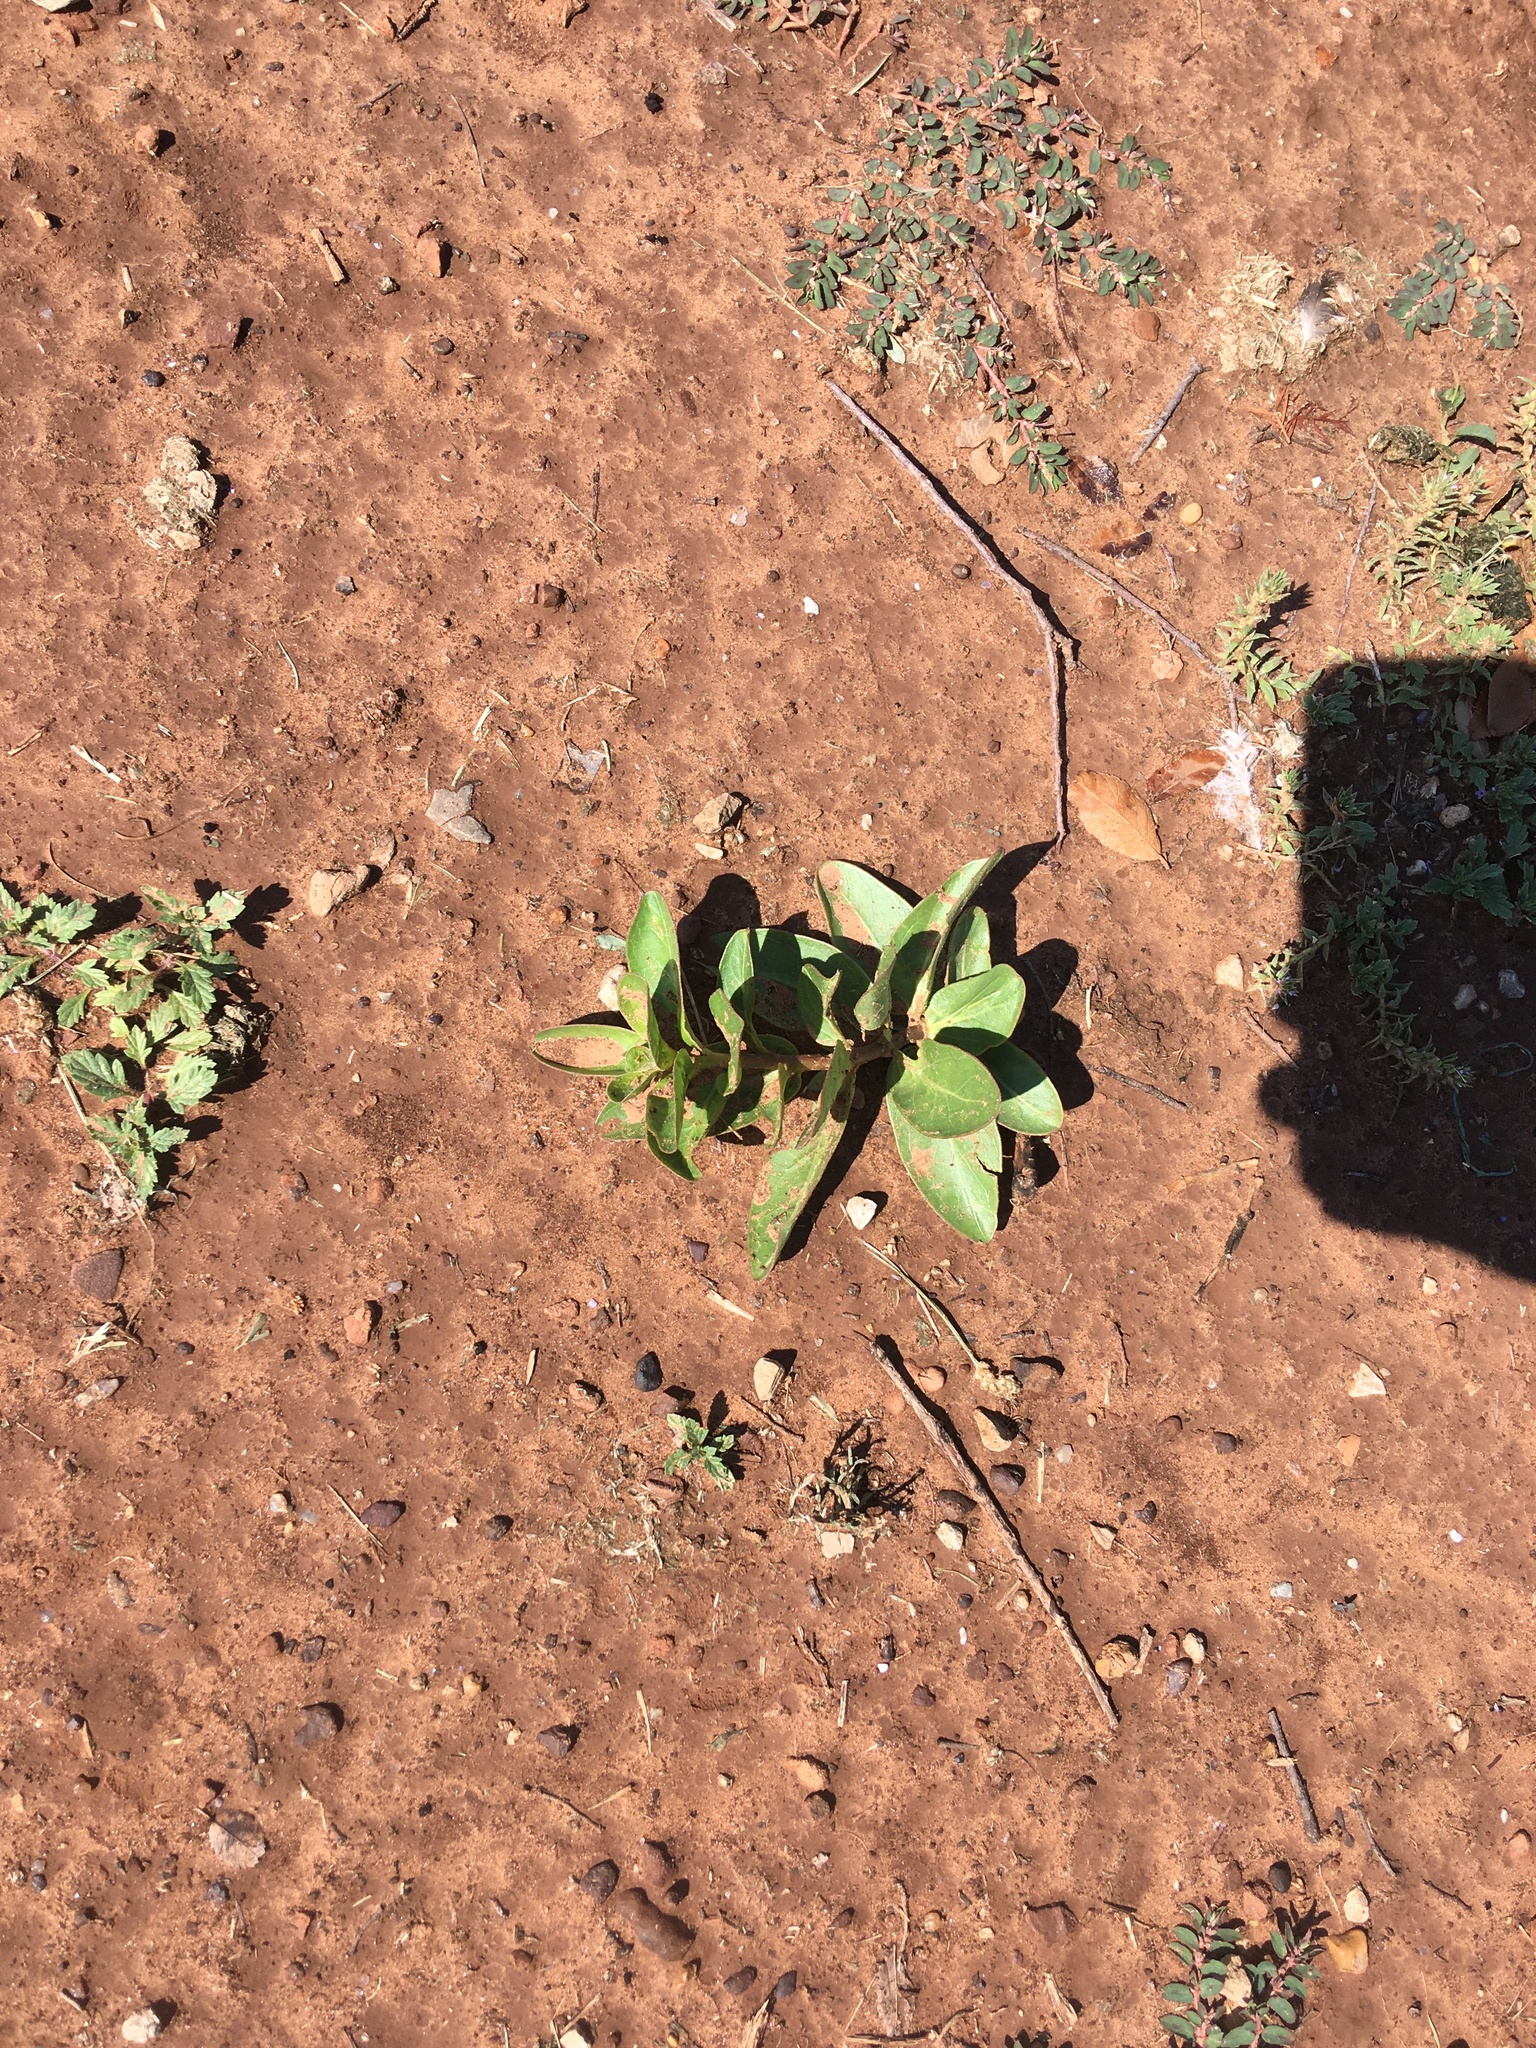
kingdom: Plantae
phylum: Tracheophyta
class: Magnoliopsida
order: Gentianales
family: Apocynaceae
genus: Asclepias
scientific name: Asclepias viridis
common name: Antelope-horns
